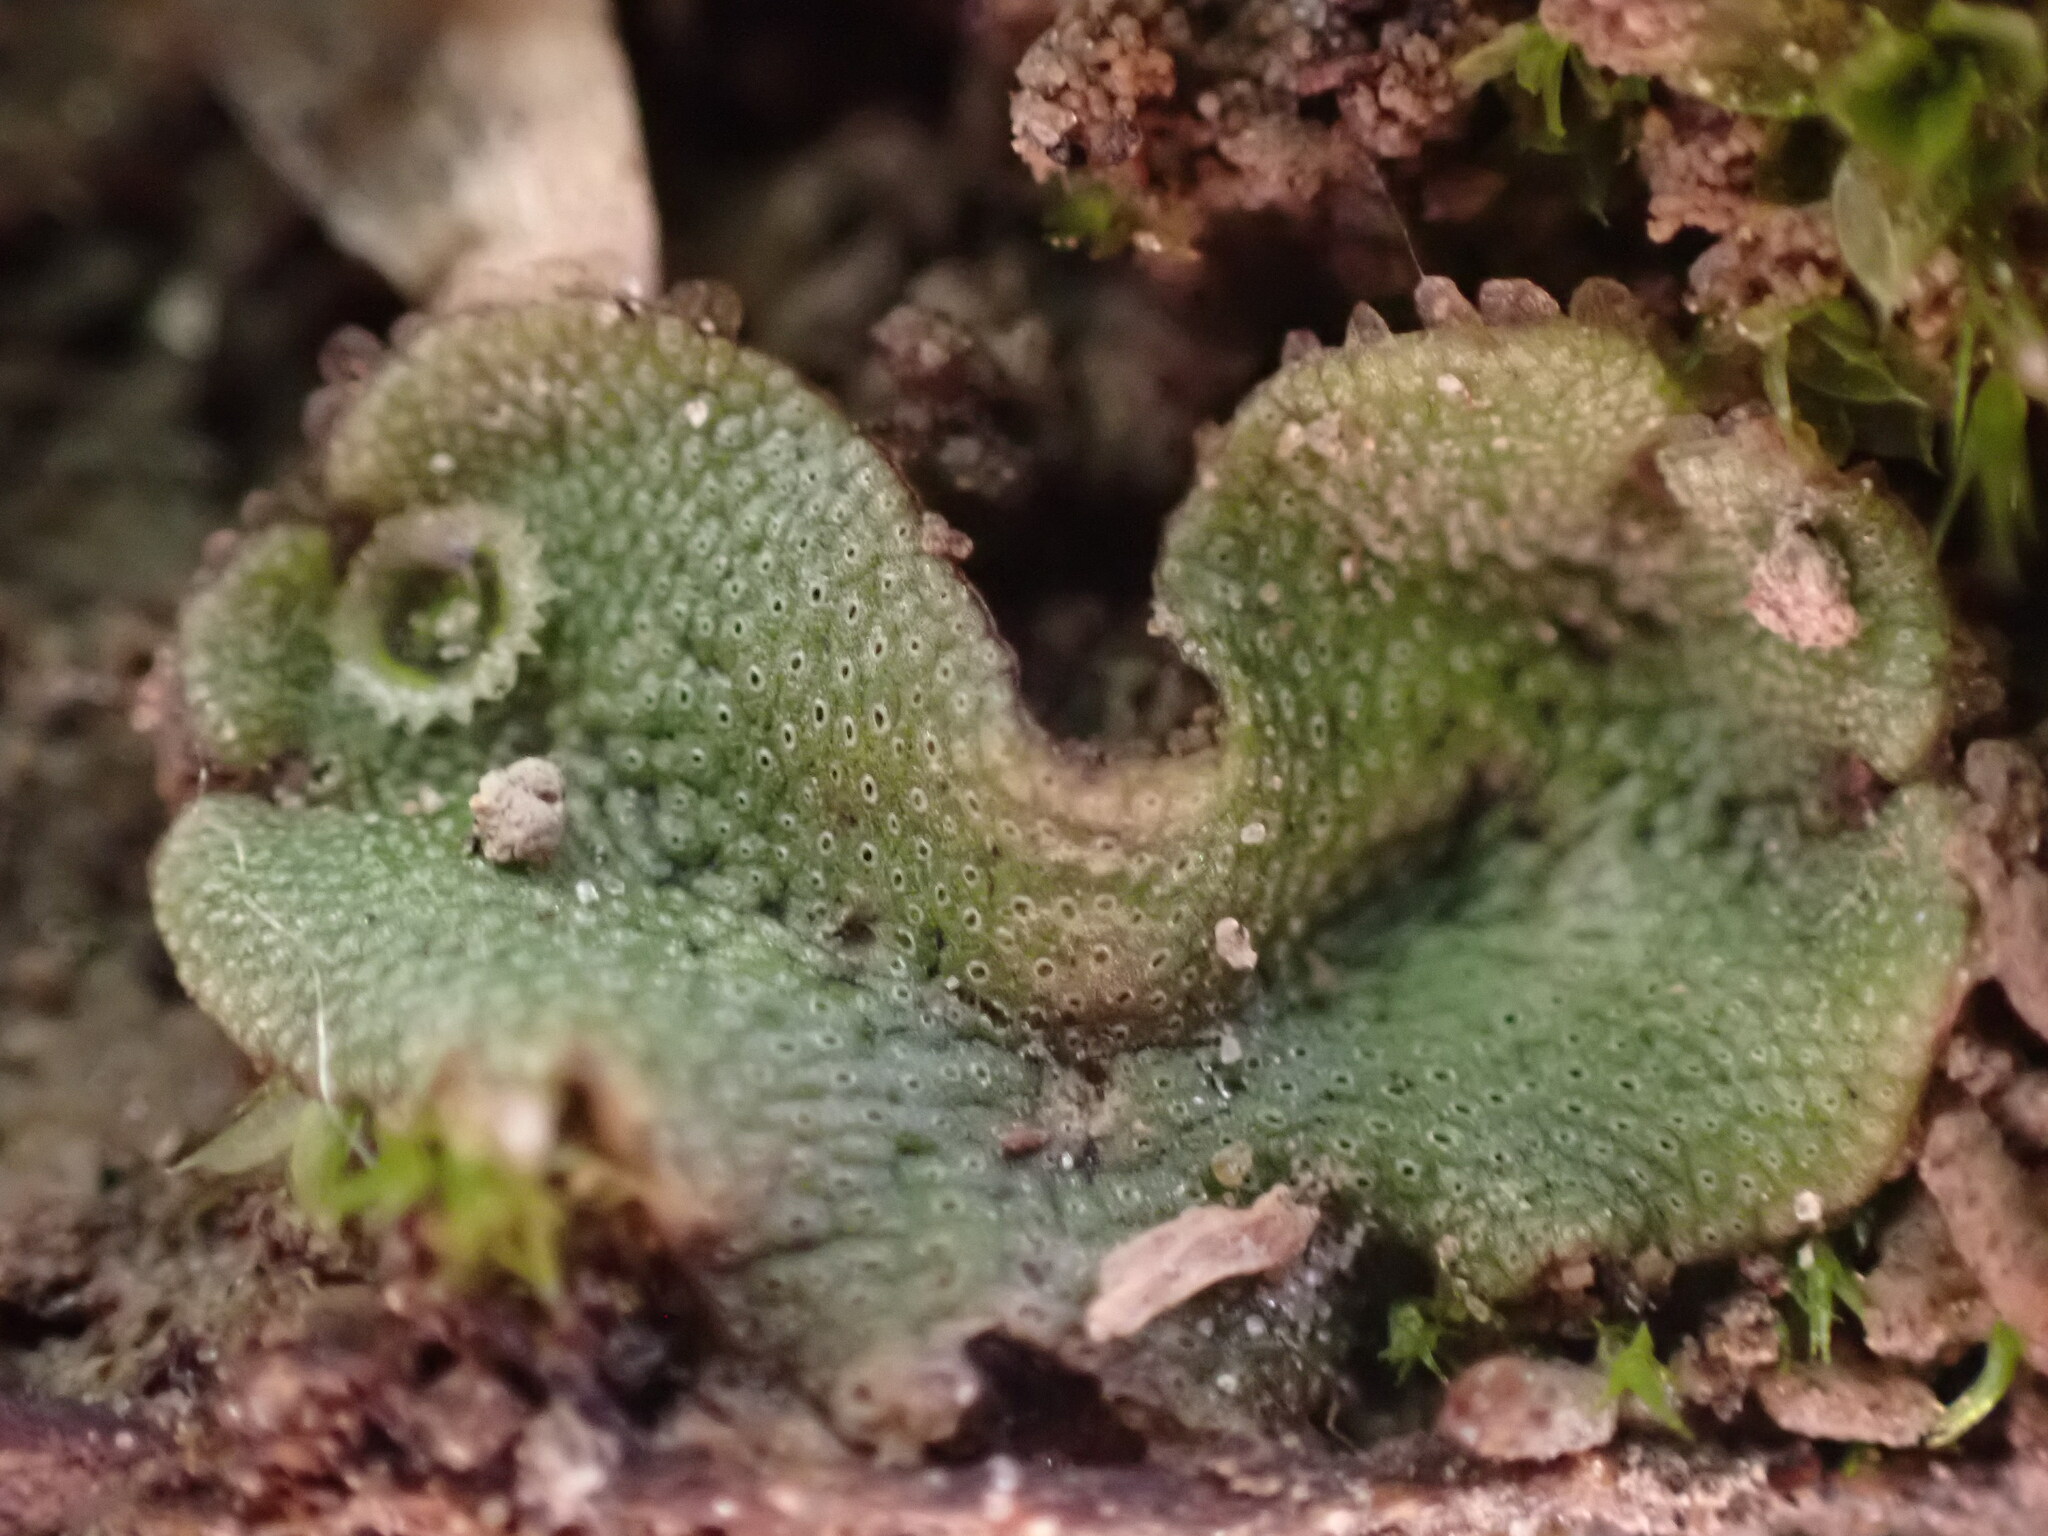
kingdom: Plantae
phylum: Marchantiophyta
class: Marchantiopsida
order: Marchantiales
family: Marchantiaceae
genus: Marchantia
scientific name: Marchantia polymorpha
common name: Common liverwort
